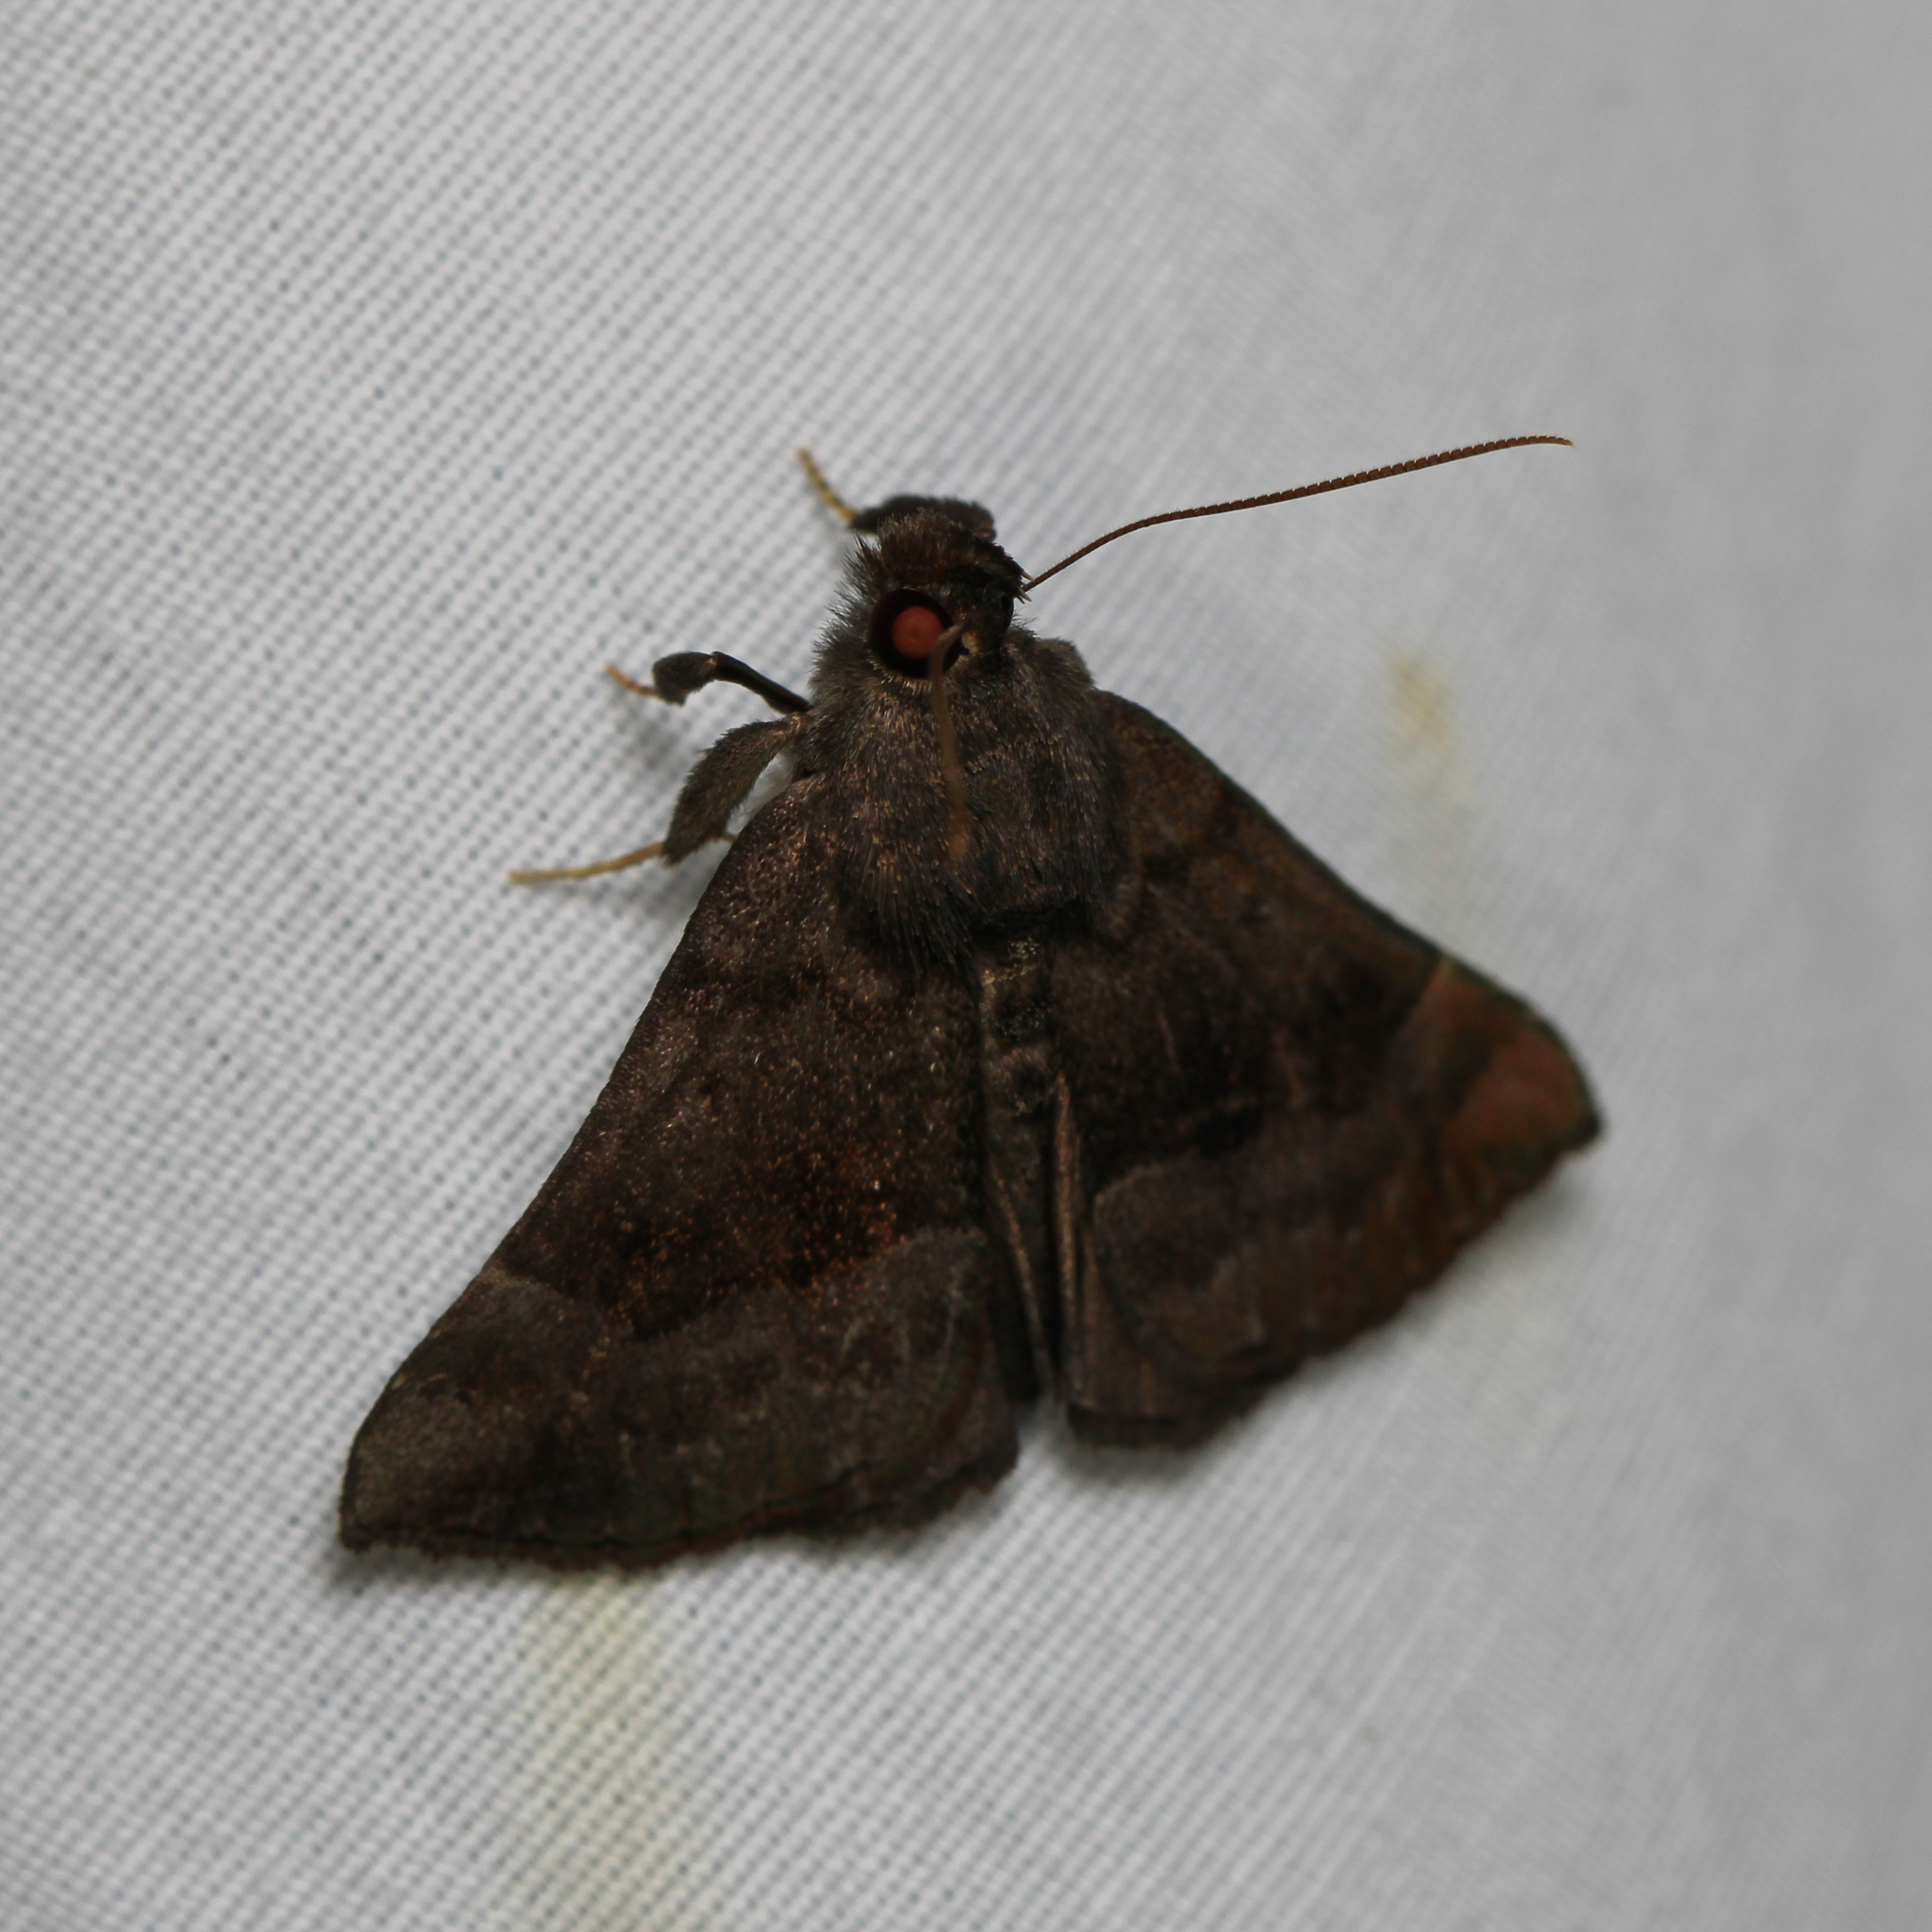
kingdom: Animalia
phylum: Arthropoda
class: Insecta
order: Lepidoptera
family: Erebidae
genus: Hypena
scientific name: Hypena madefactalis
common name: Gray-edged snout
